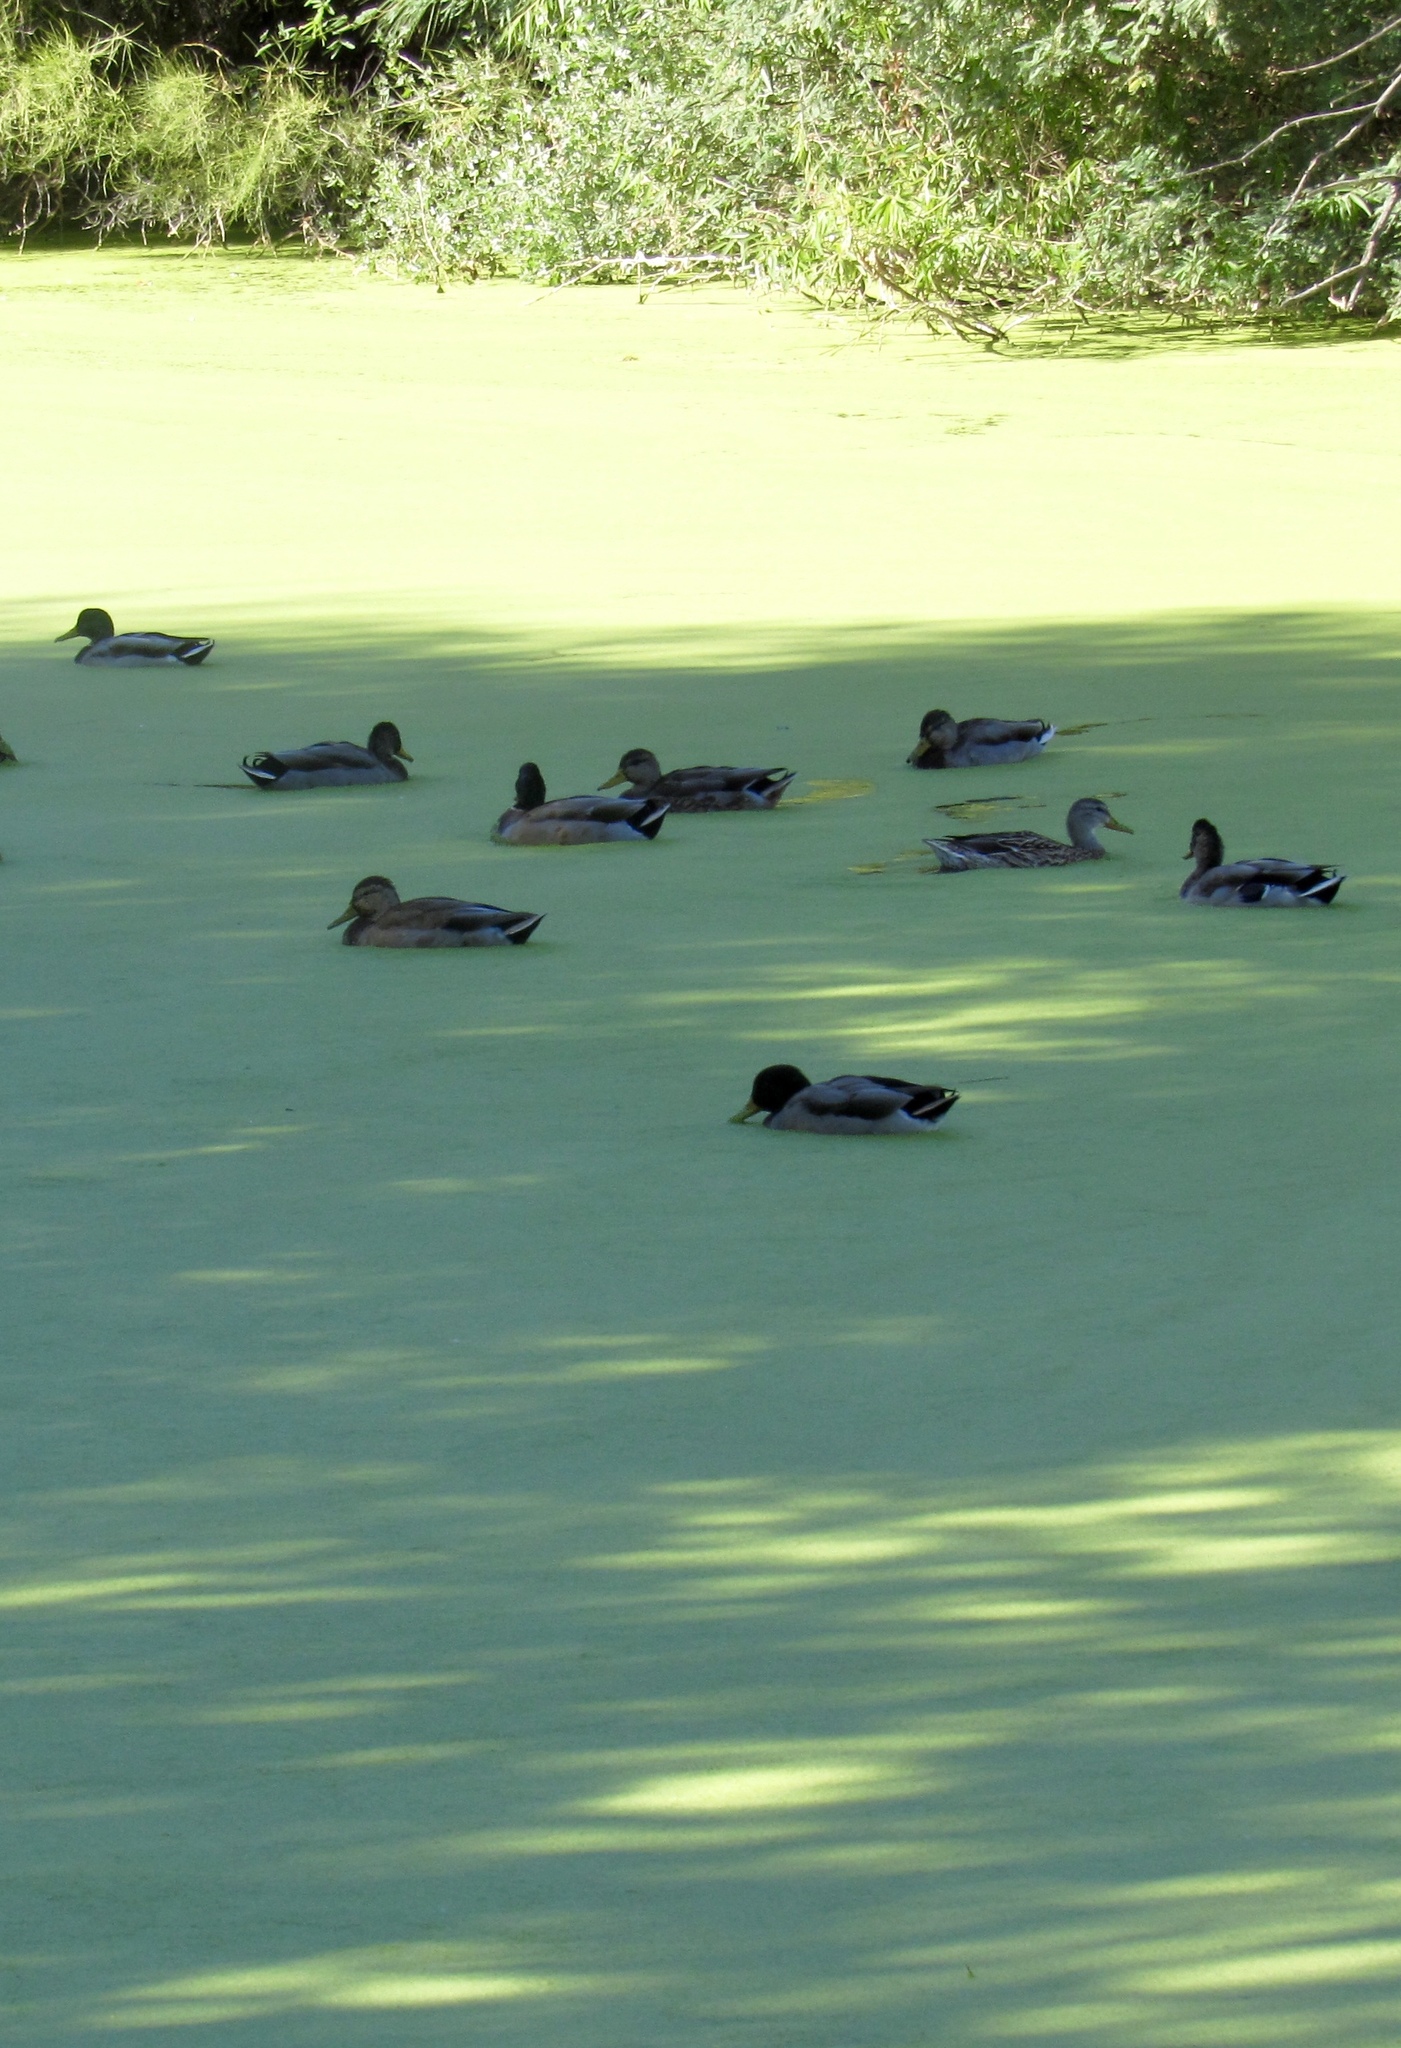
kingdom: Animalia
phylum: Chordata
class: Aves
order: Anseriformes
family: Anatidae
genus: Anas
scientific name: Anas platyrhynchos
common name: Mallard
